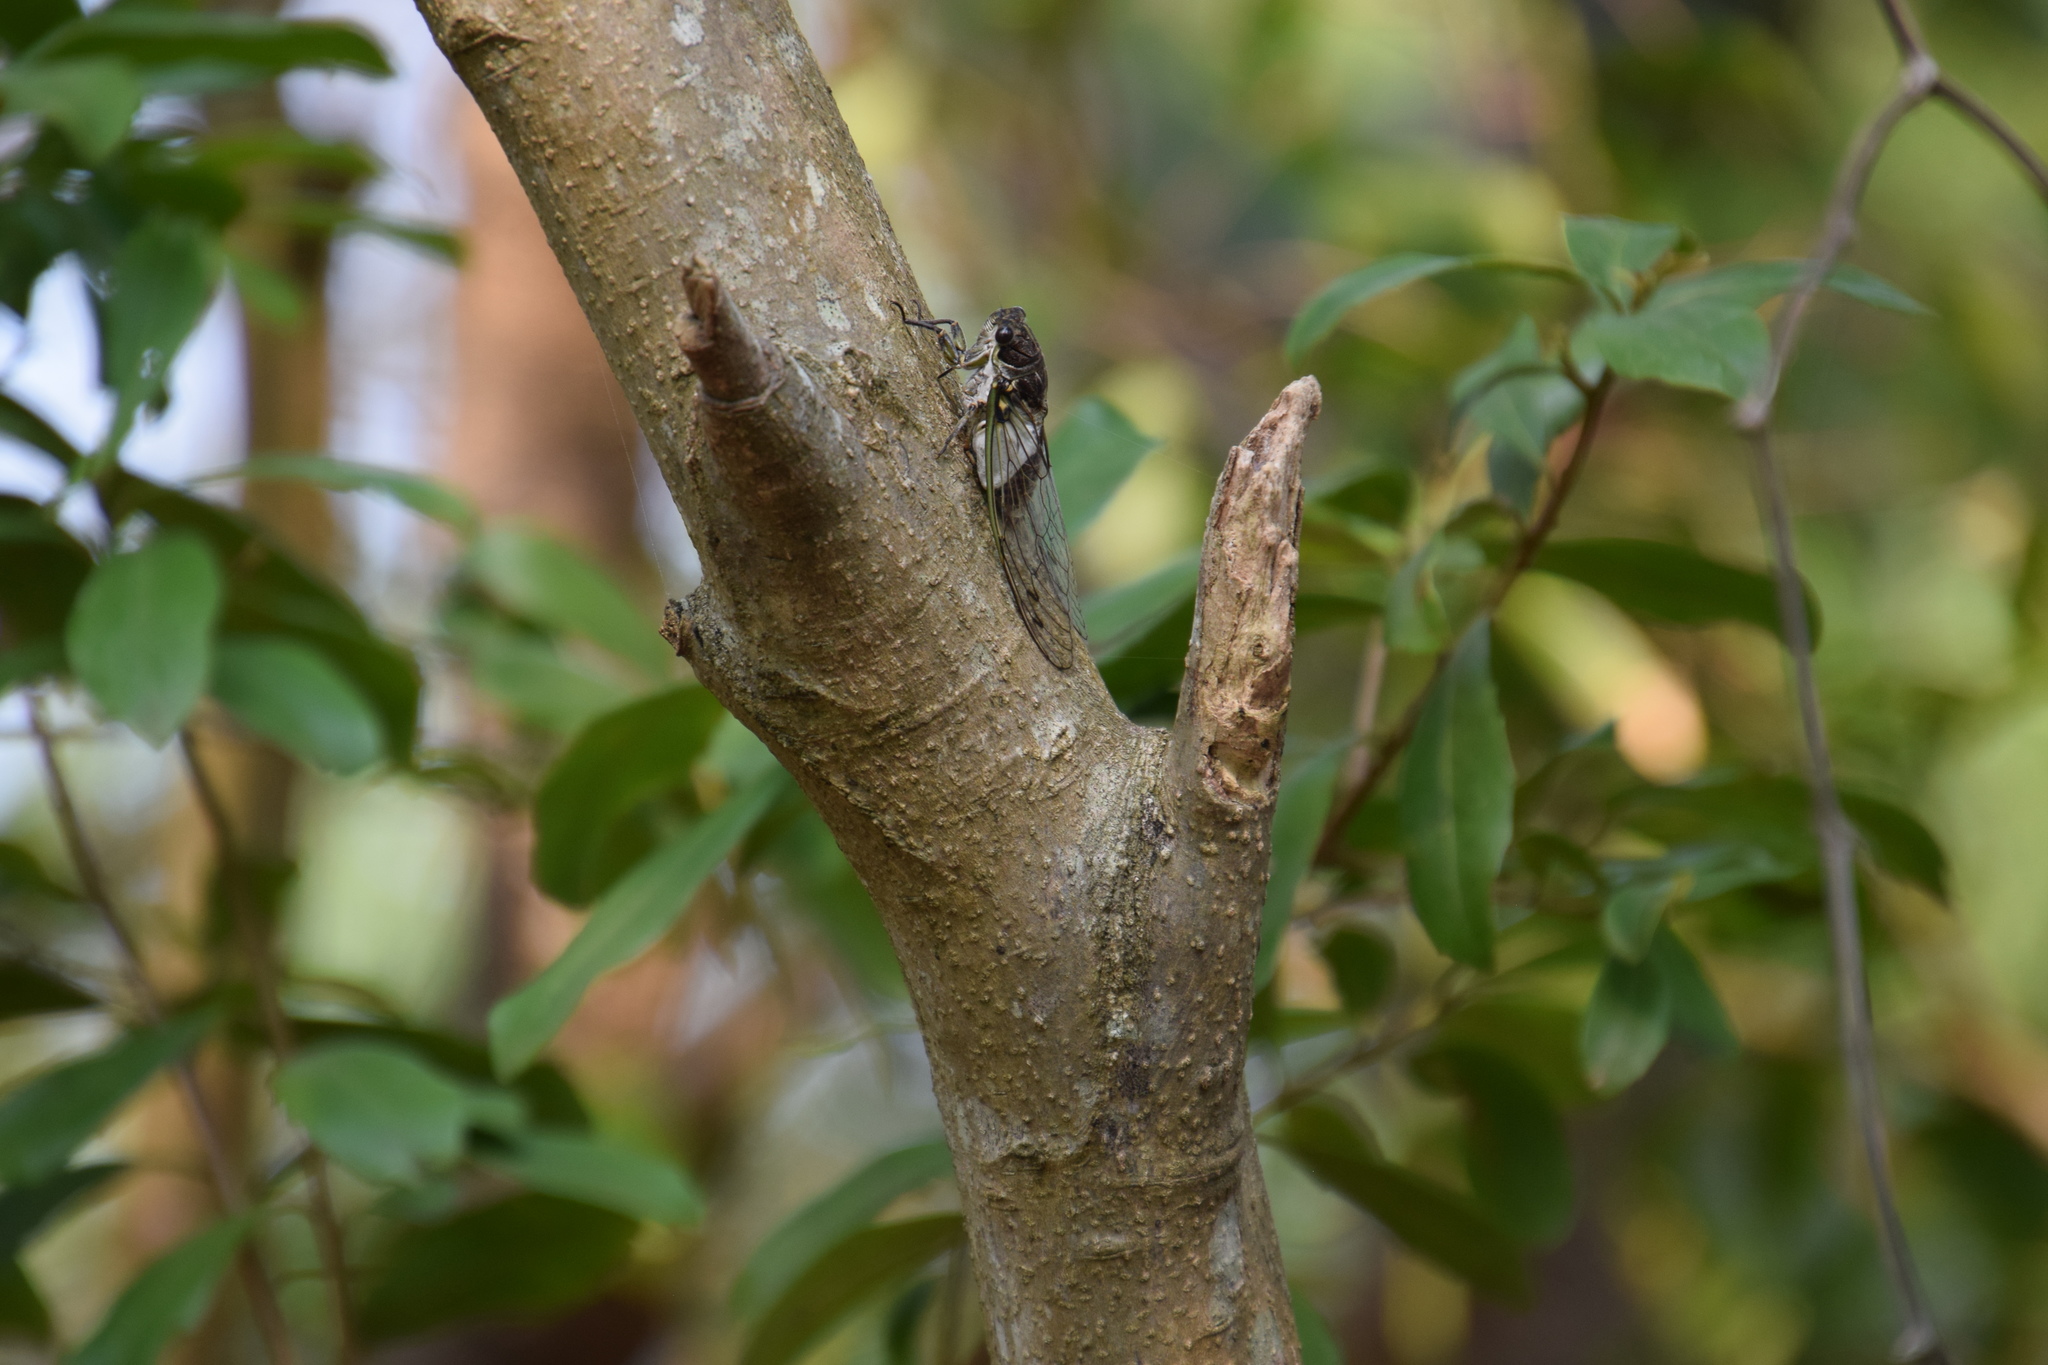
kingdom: Animalia
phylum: Arthropoda
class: Insecta
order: Hemiptera
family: Cicadidae
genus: Arunta
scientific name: Arunta perulata
